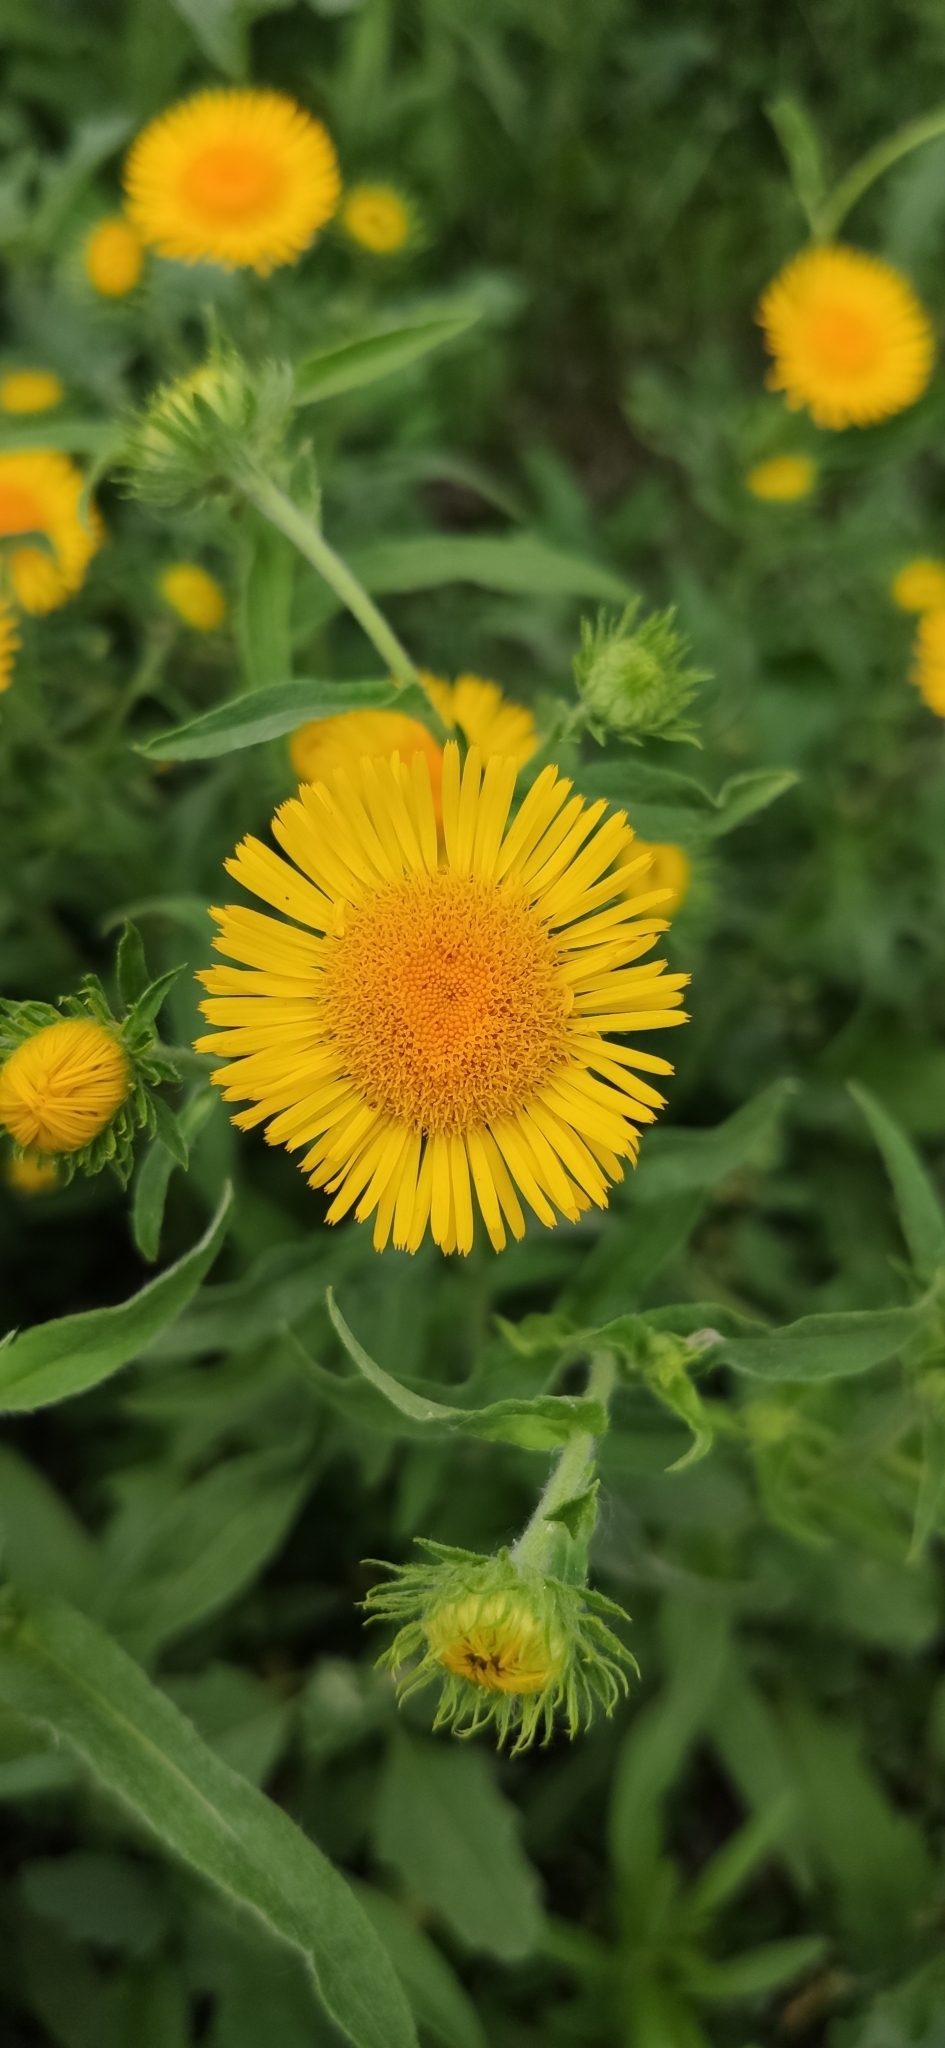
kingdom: Plantae
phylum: Tracheophyta
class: Magnoliopsida
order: Asterales
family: Asteraceae
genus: Pentanema
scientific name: Pentanema britannicum
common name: British elecampane
